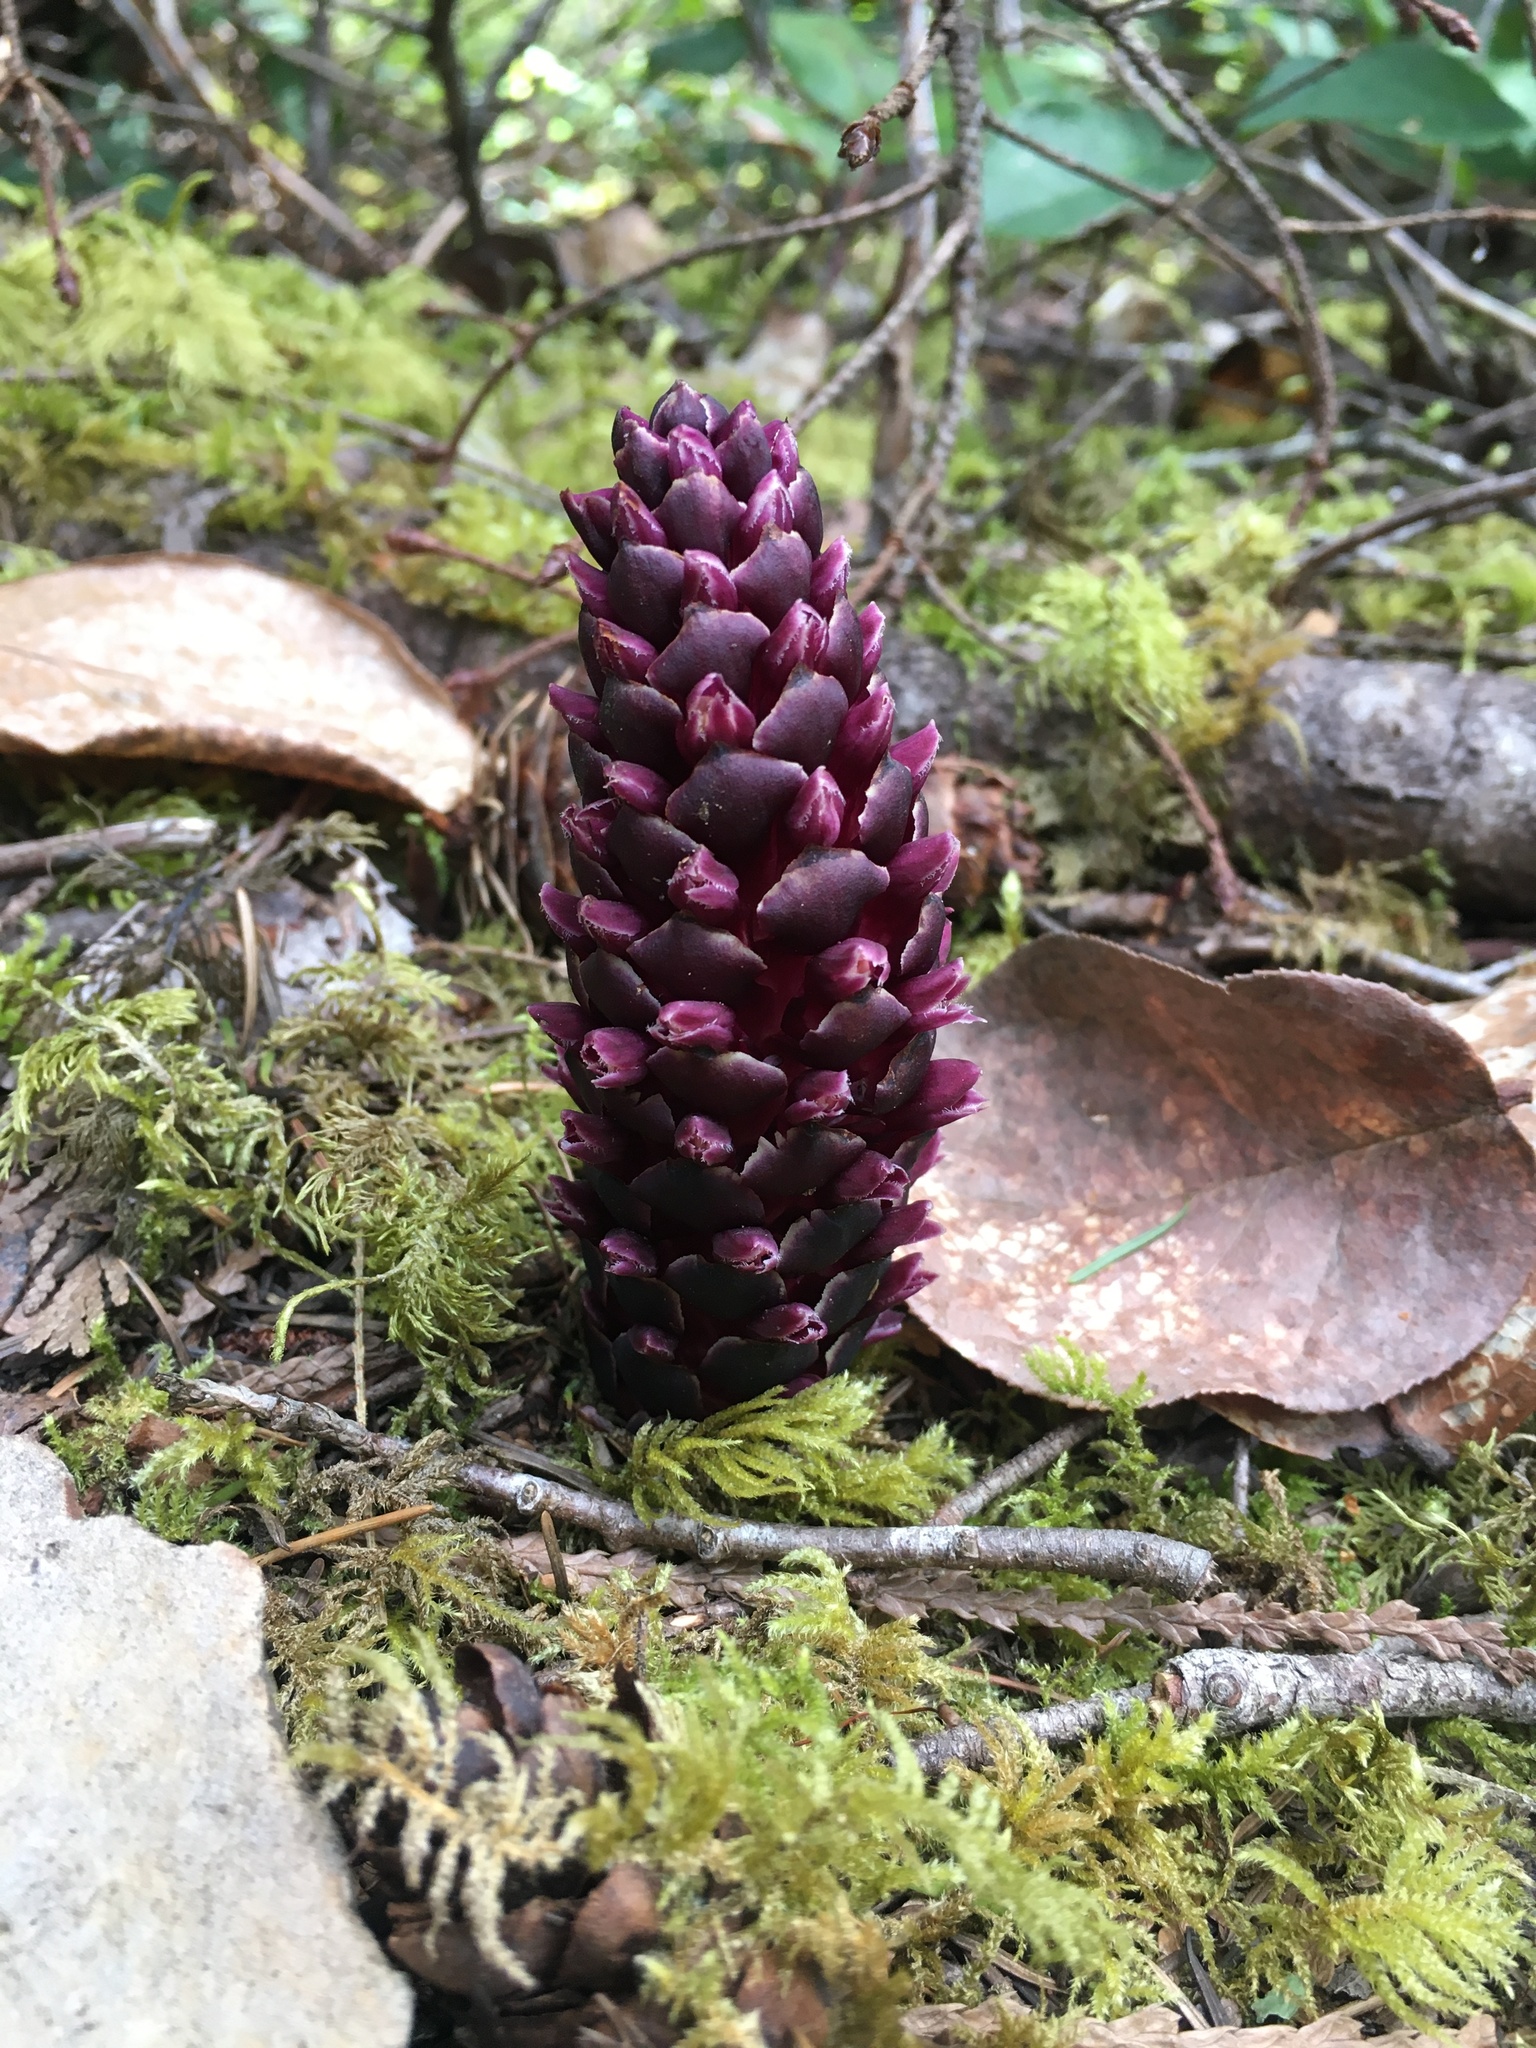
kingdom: Plantae
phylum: Tracheophyta
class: Magnoliopsida
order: Lamiales
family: Orobanchaceae
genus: Kopsiopsis
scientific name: Kopsiopsis hookeri
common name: Hooker's groundcone
